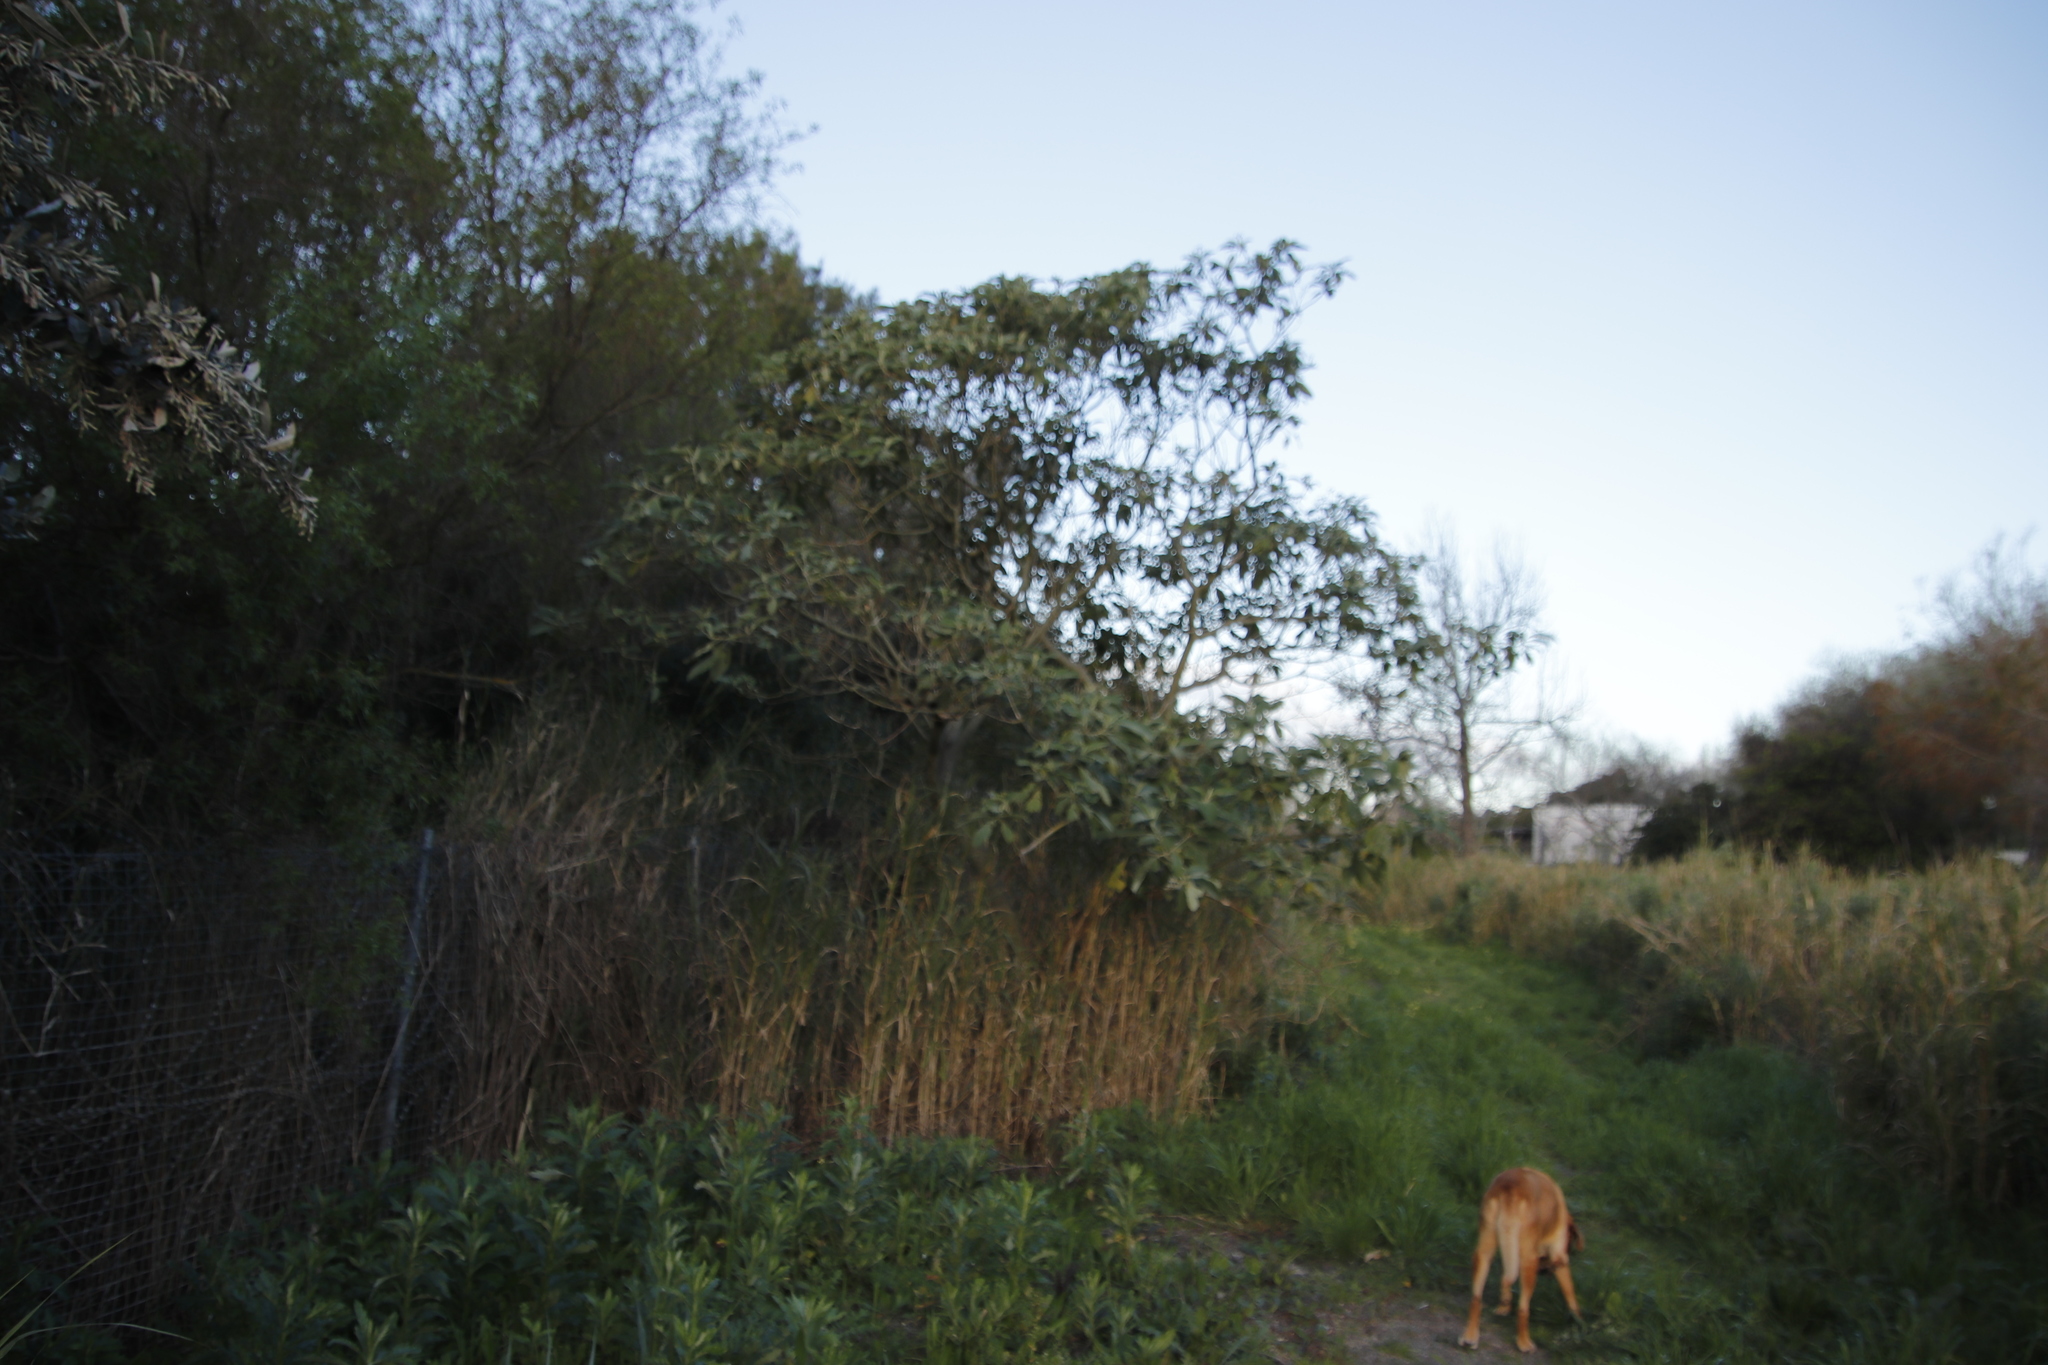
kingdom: Plantae
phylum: Tracheophyta
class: Magnoliopsida
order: Solanales
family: Solanaceae
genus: Solanum
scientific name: Solanum mauritianum
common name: Earleaf nightshade
